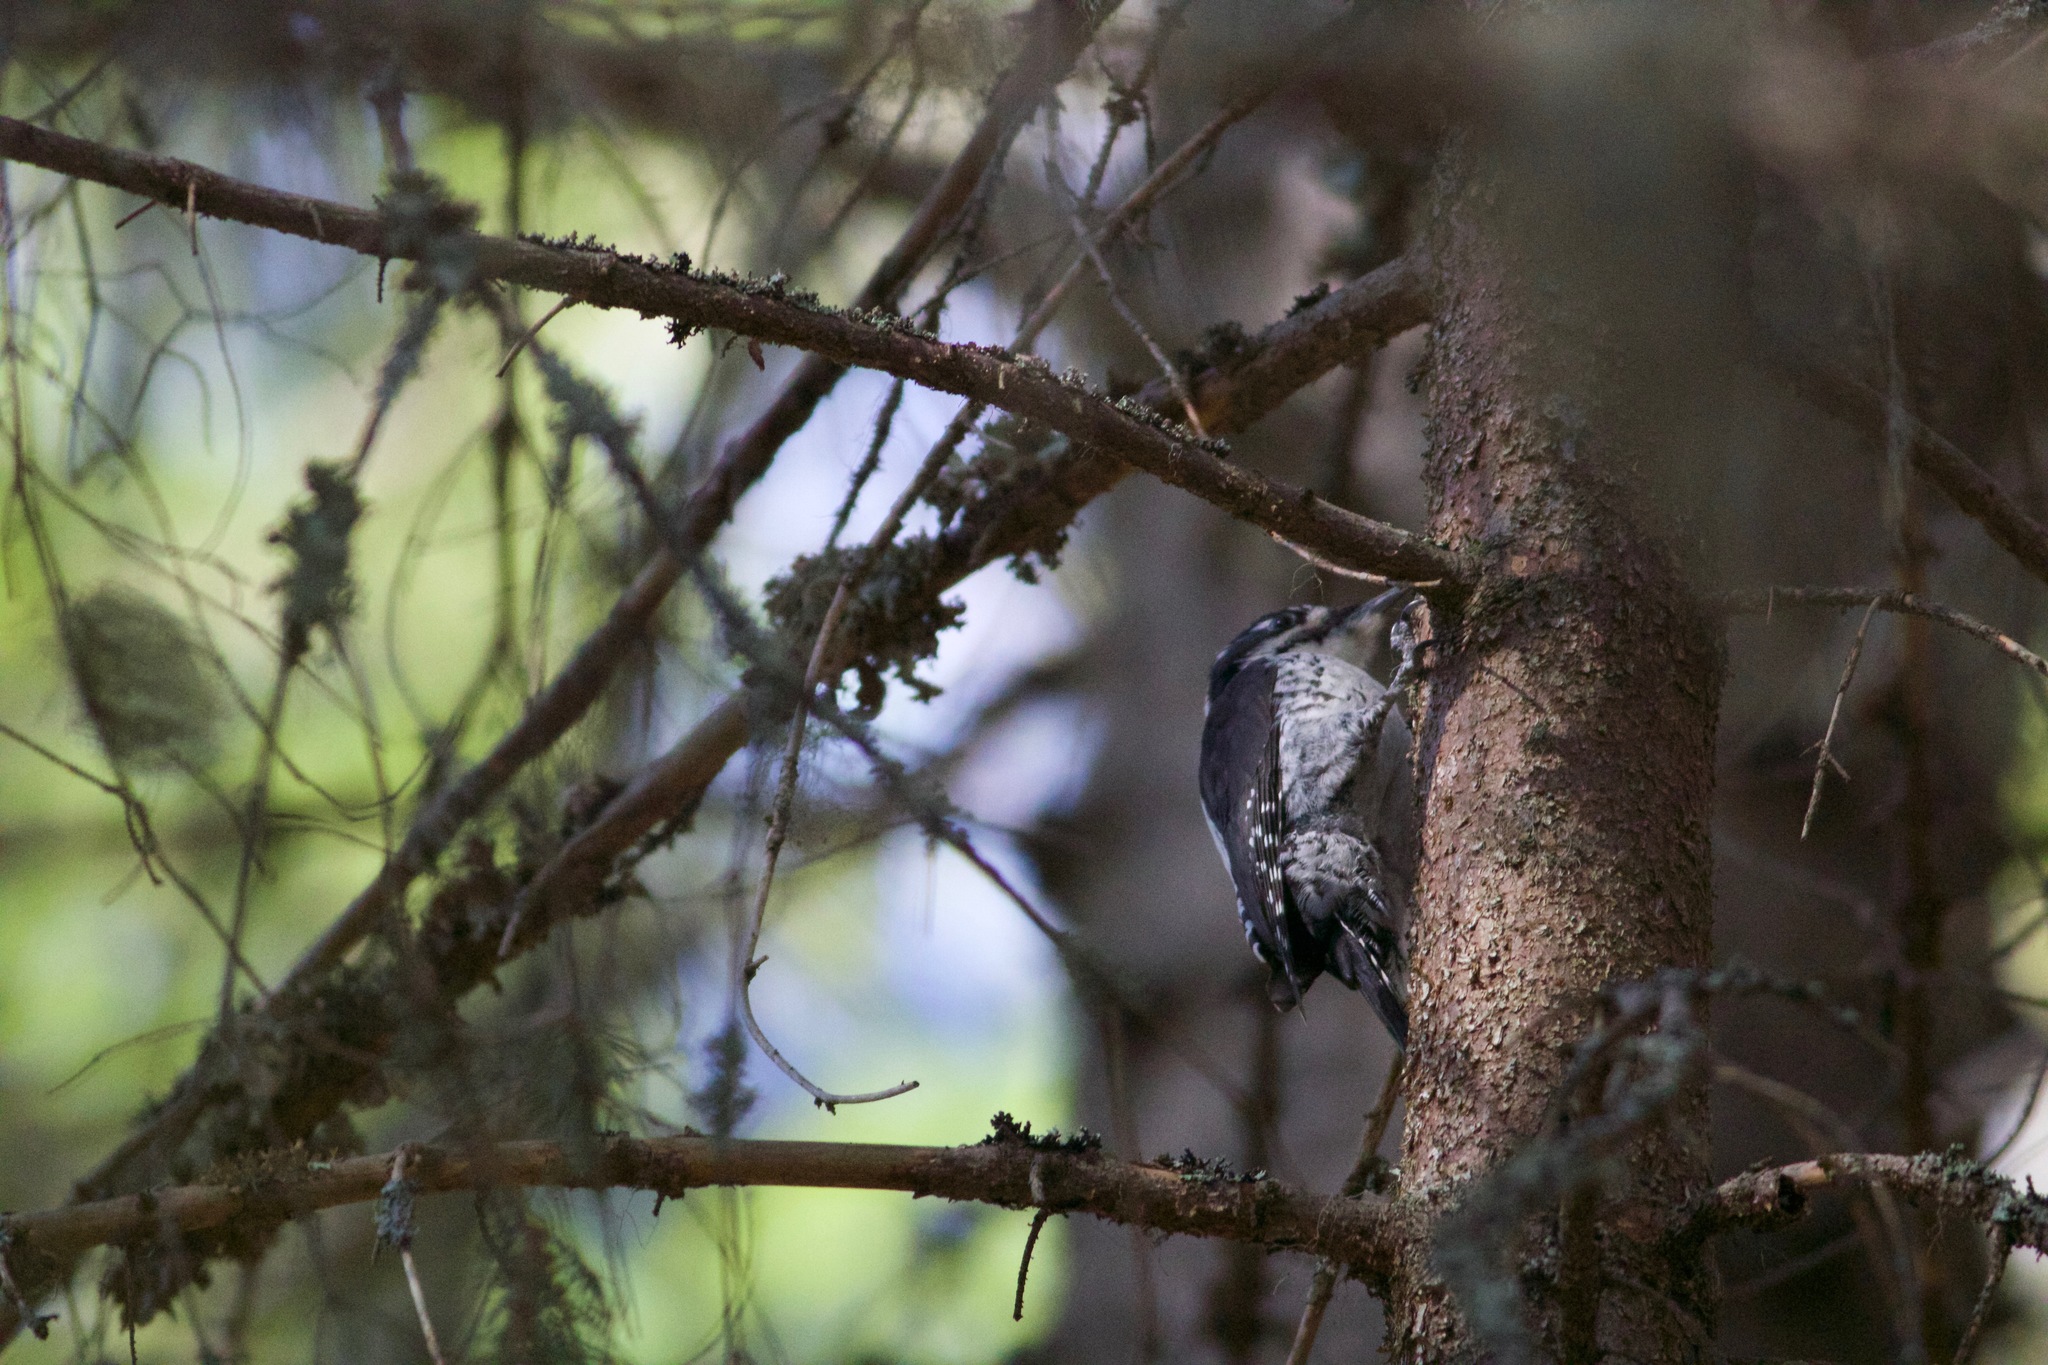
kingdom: Animalia
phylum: Chordata
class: Aves
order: Piciformes
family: Picidae
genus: Picoides
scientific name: Picoides tridactylus
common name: Eurasian three-toed woodpecker
